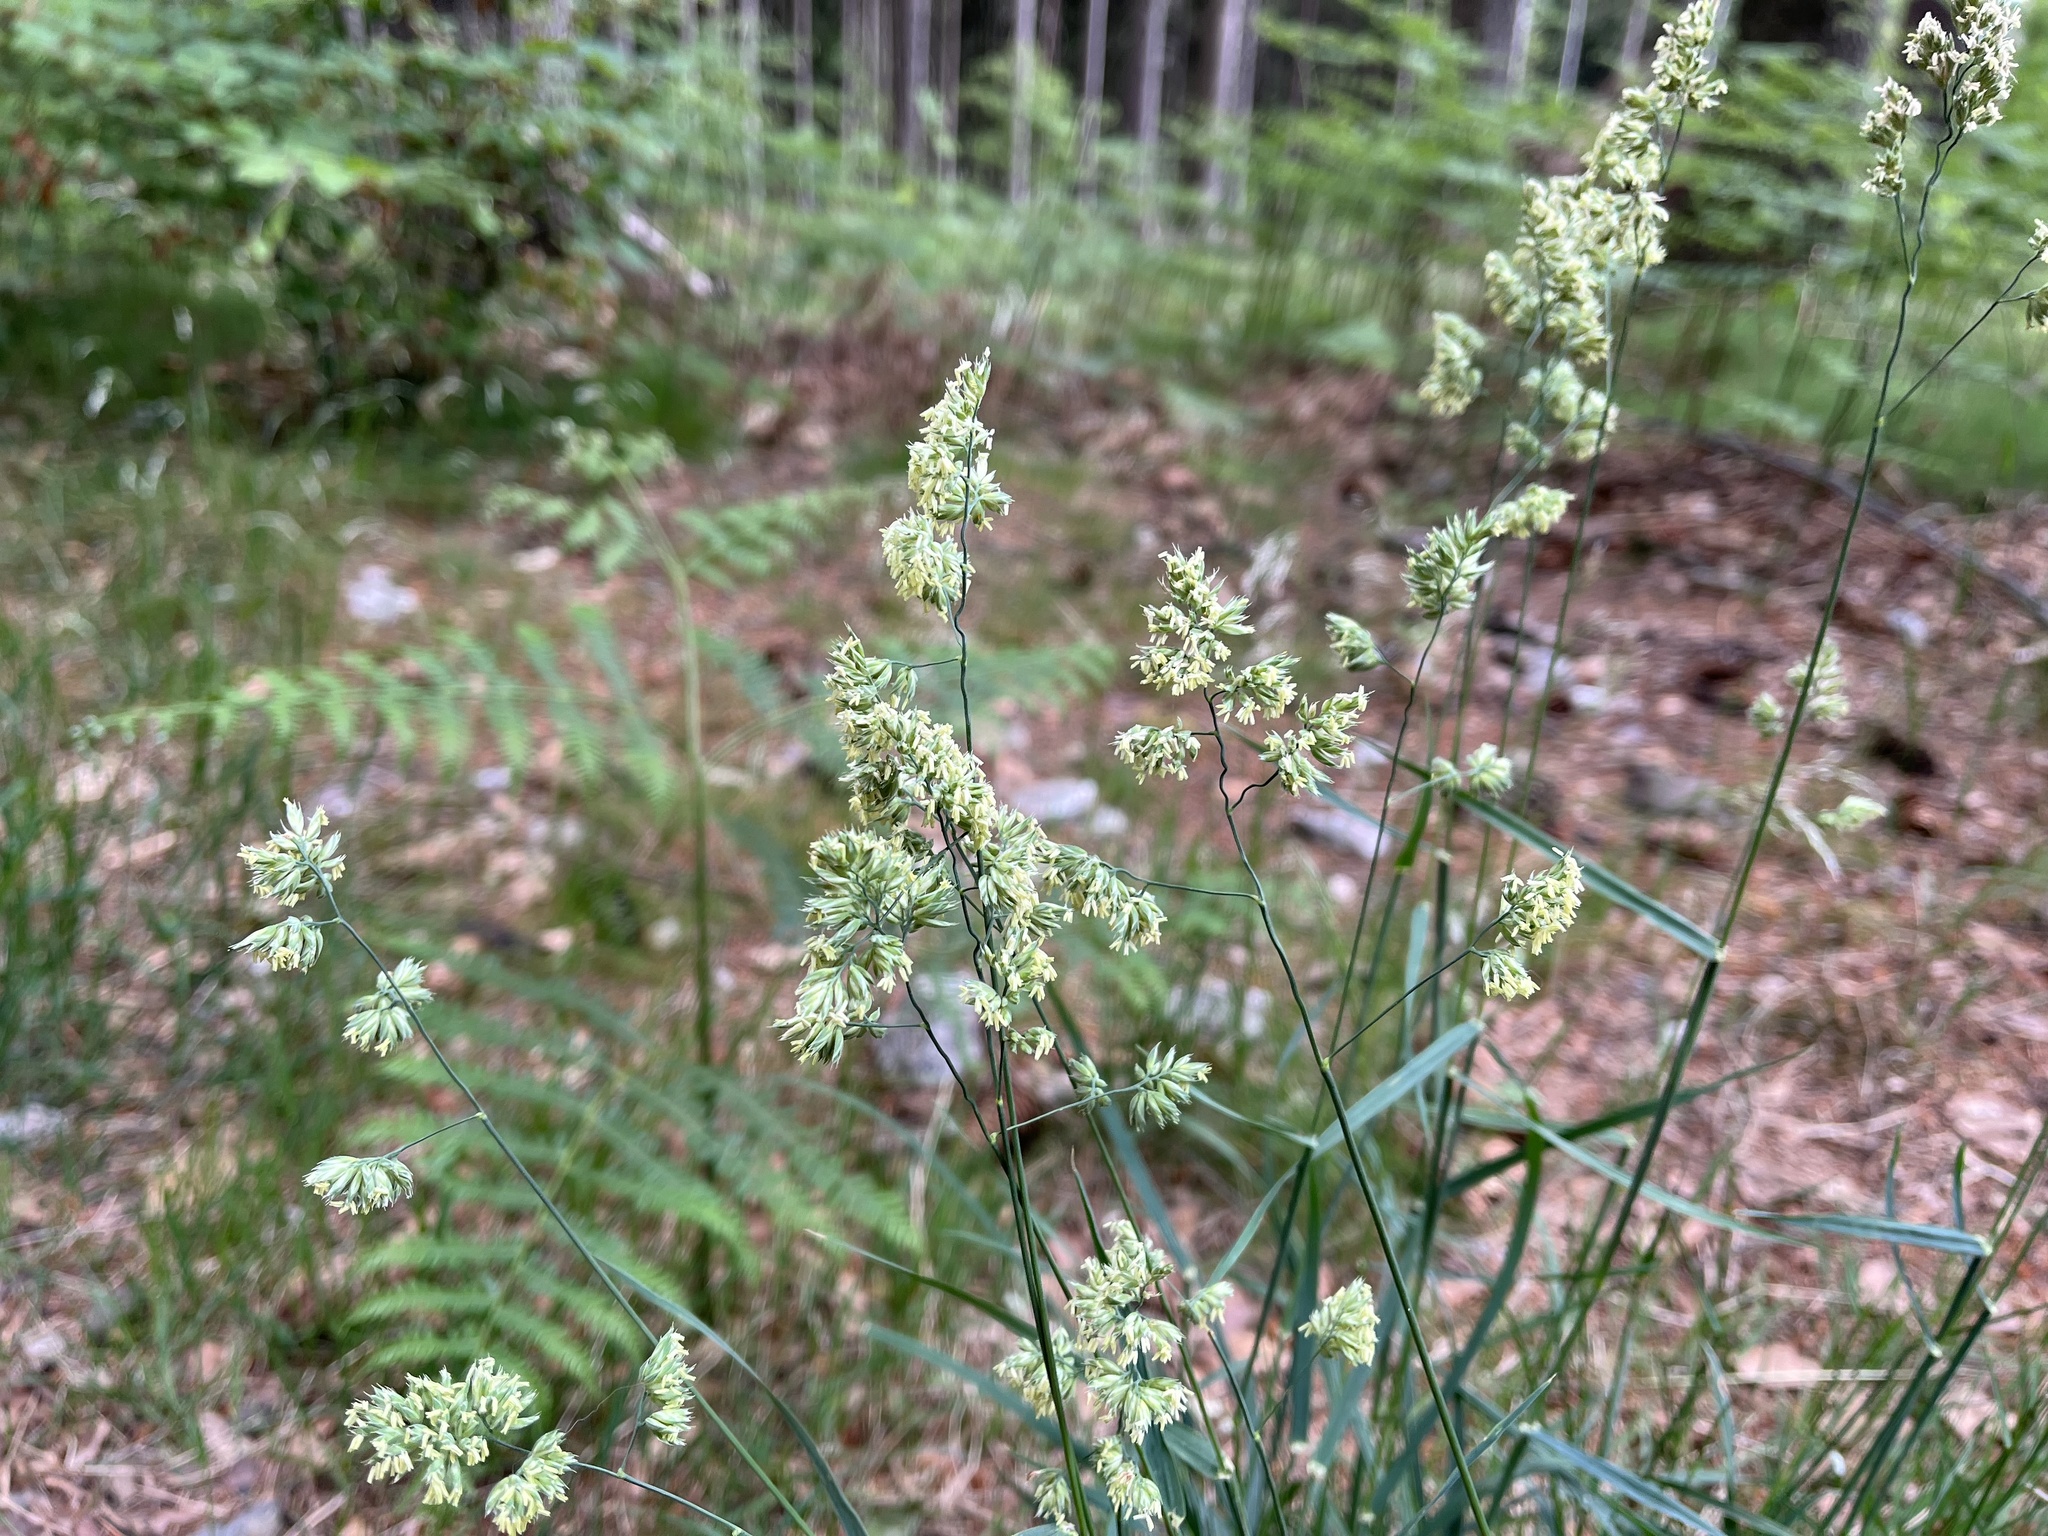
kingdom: Plantae
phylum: Tracheophyta
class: Liliopsida
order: Poales
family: Poaceae
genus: Dactylis
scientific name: Dactylis glomerata
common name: Orchardgrass
